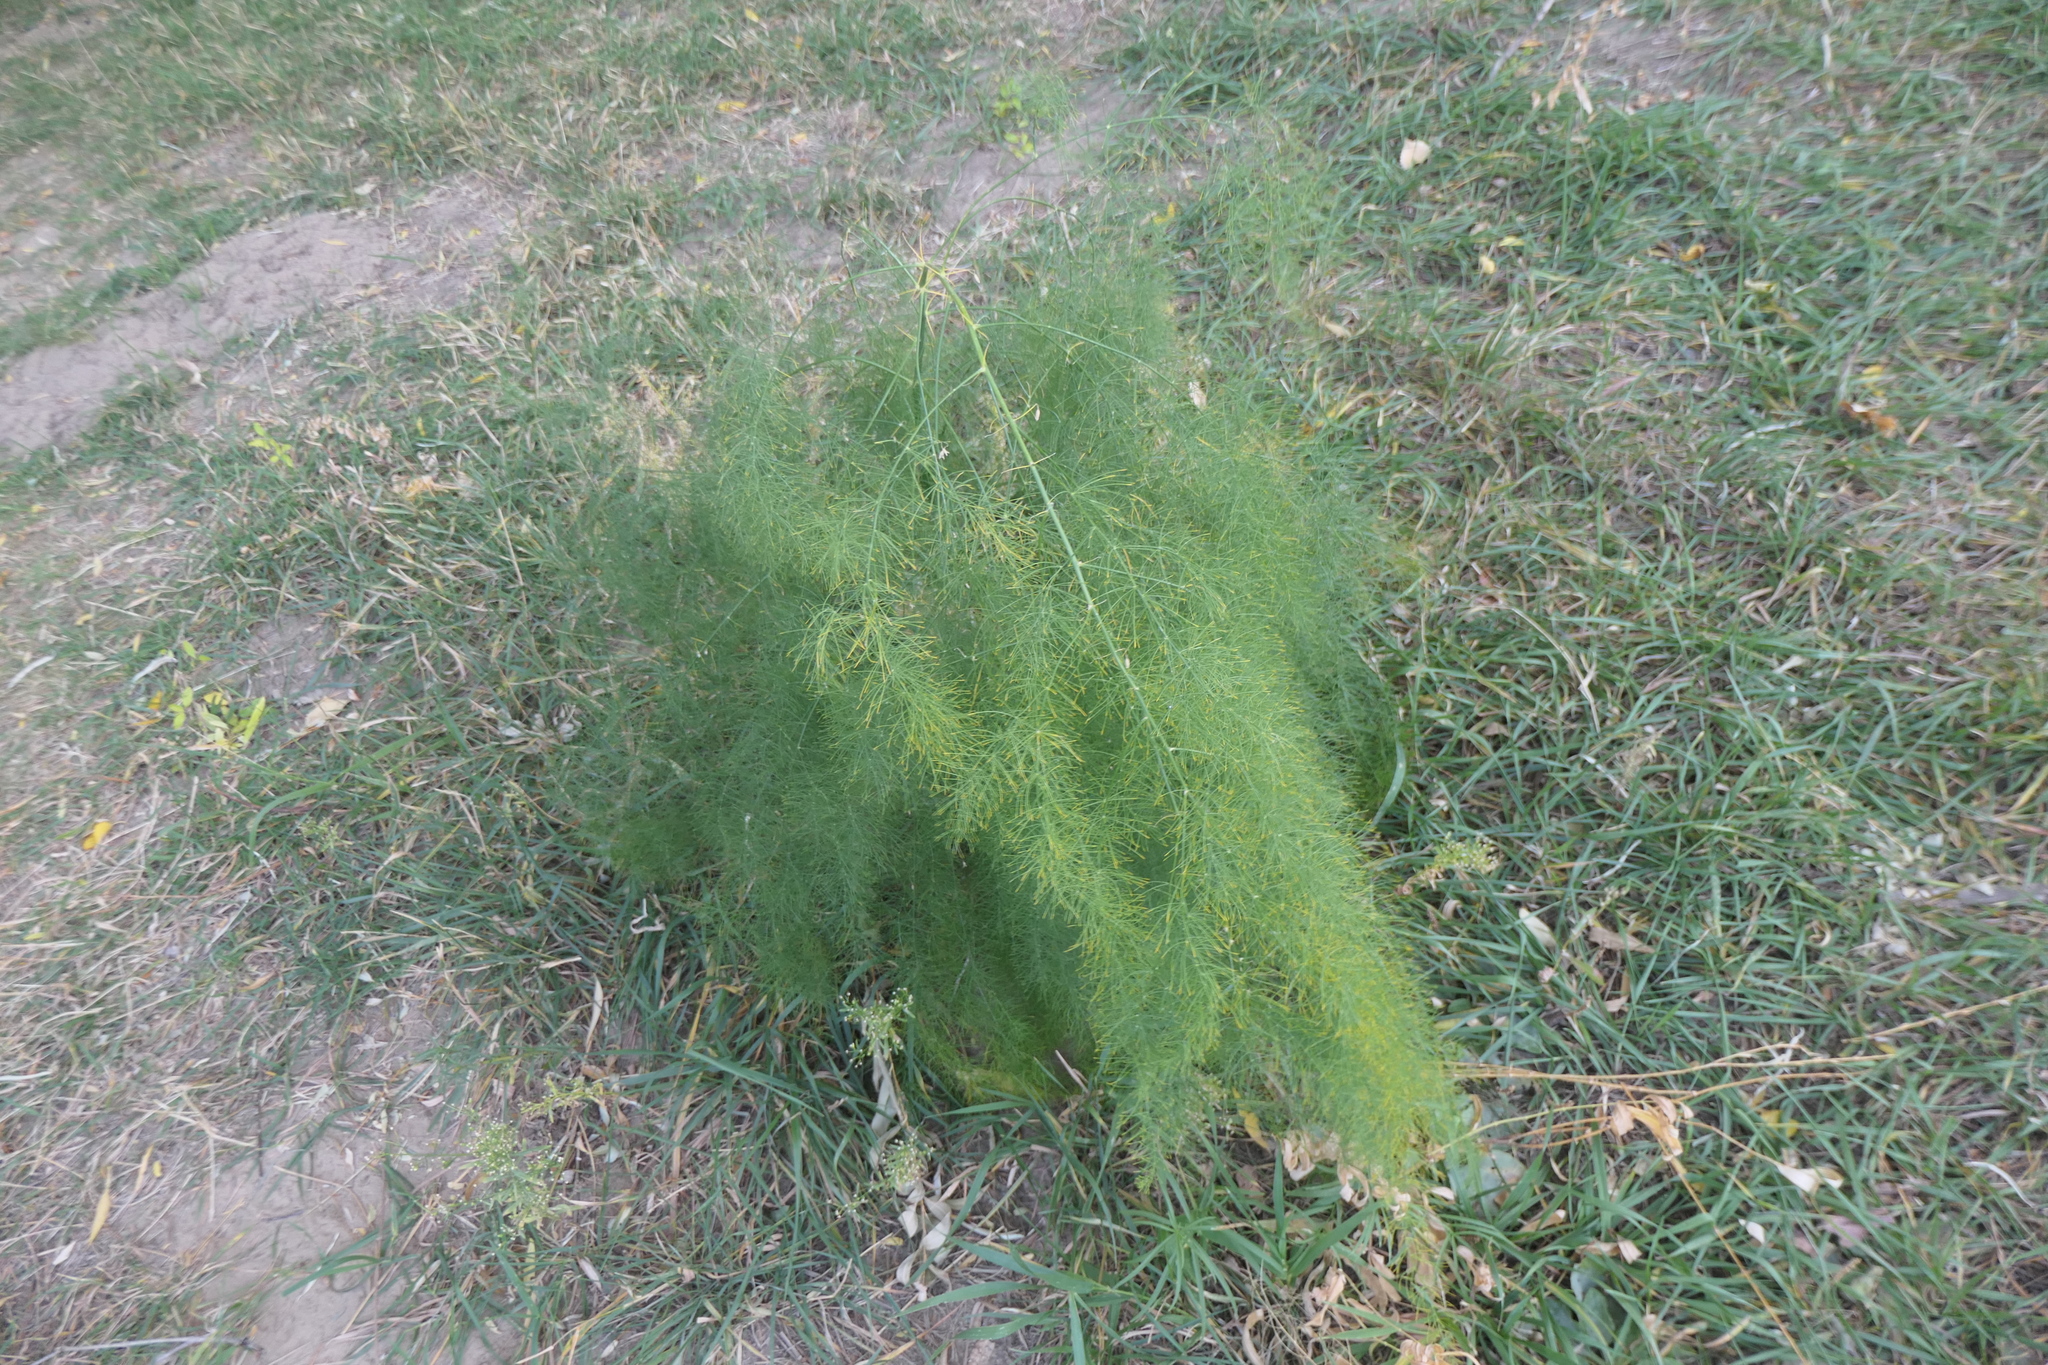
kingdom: Plantae
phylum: Tracheophyta
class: Liliopsida
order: Asparagales
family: Asparagaceae
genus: Asparagus
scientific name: Asparagus officinalis
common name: Garden asparagus
